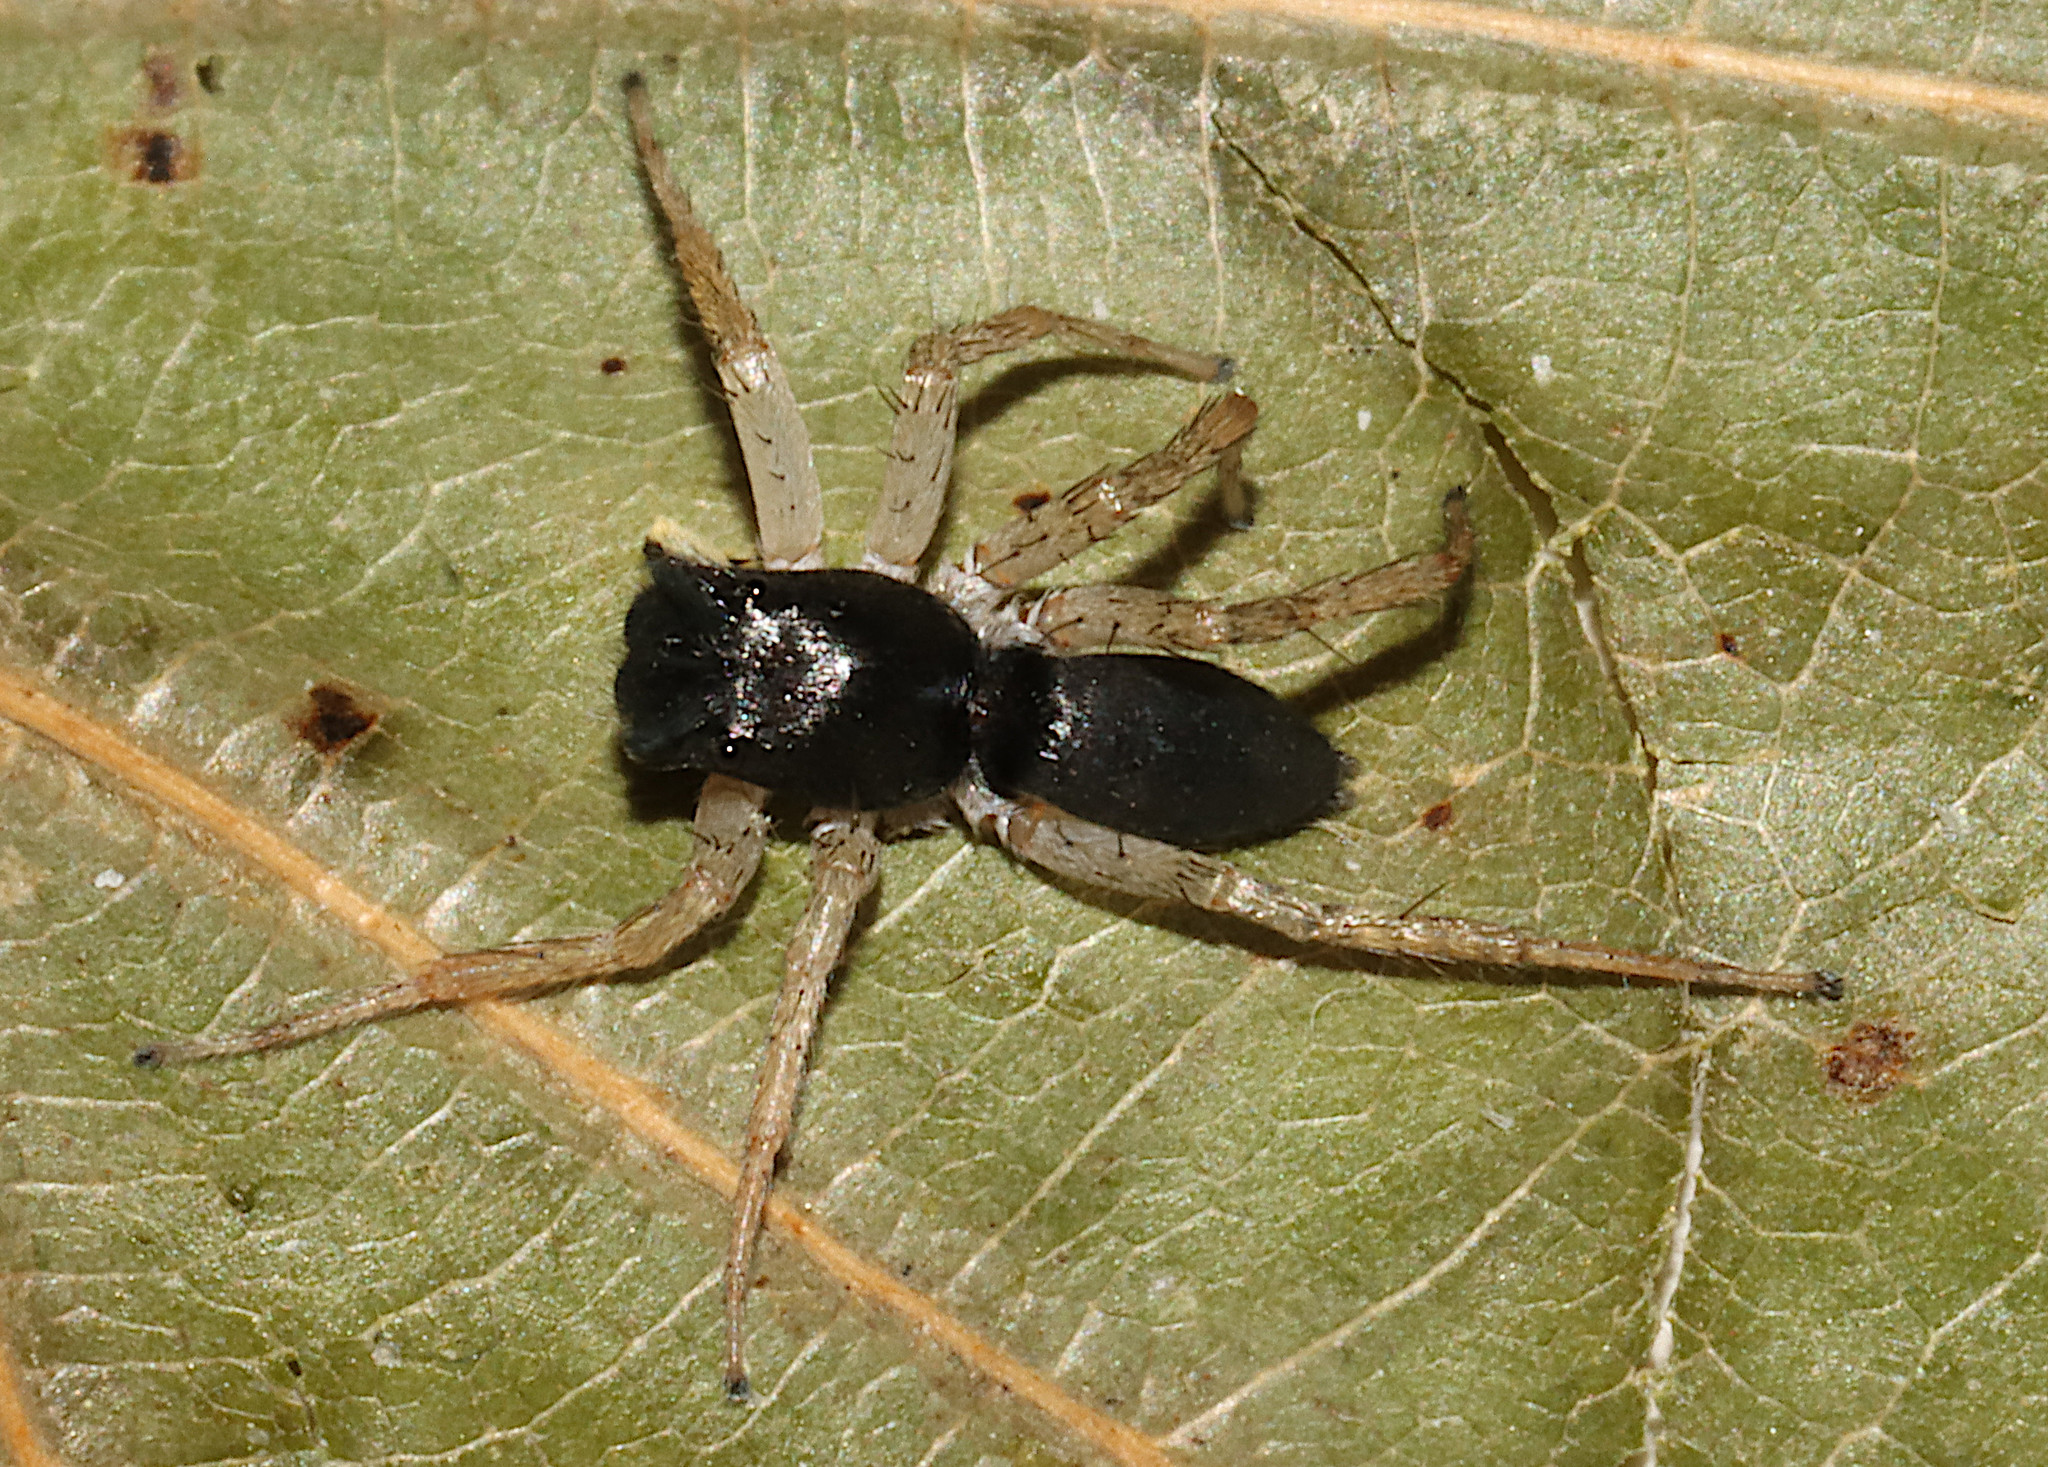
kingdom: Animalia
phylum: Arthropoda
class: Arachnida
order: Araneae
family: Salticidae
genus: Maevia
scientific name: Maevia inclemens
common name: Dimorphic jumper
